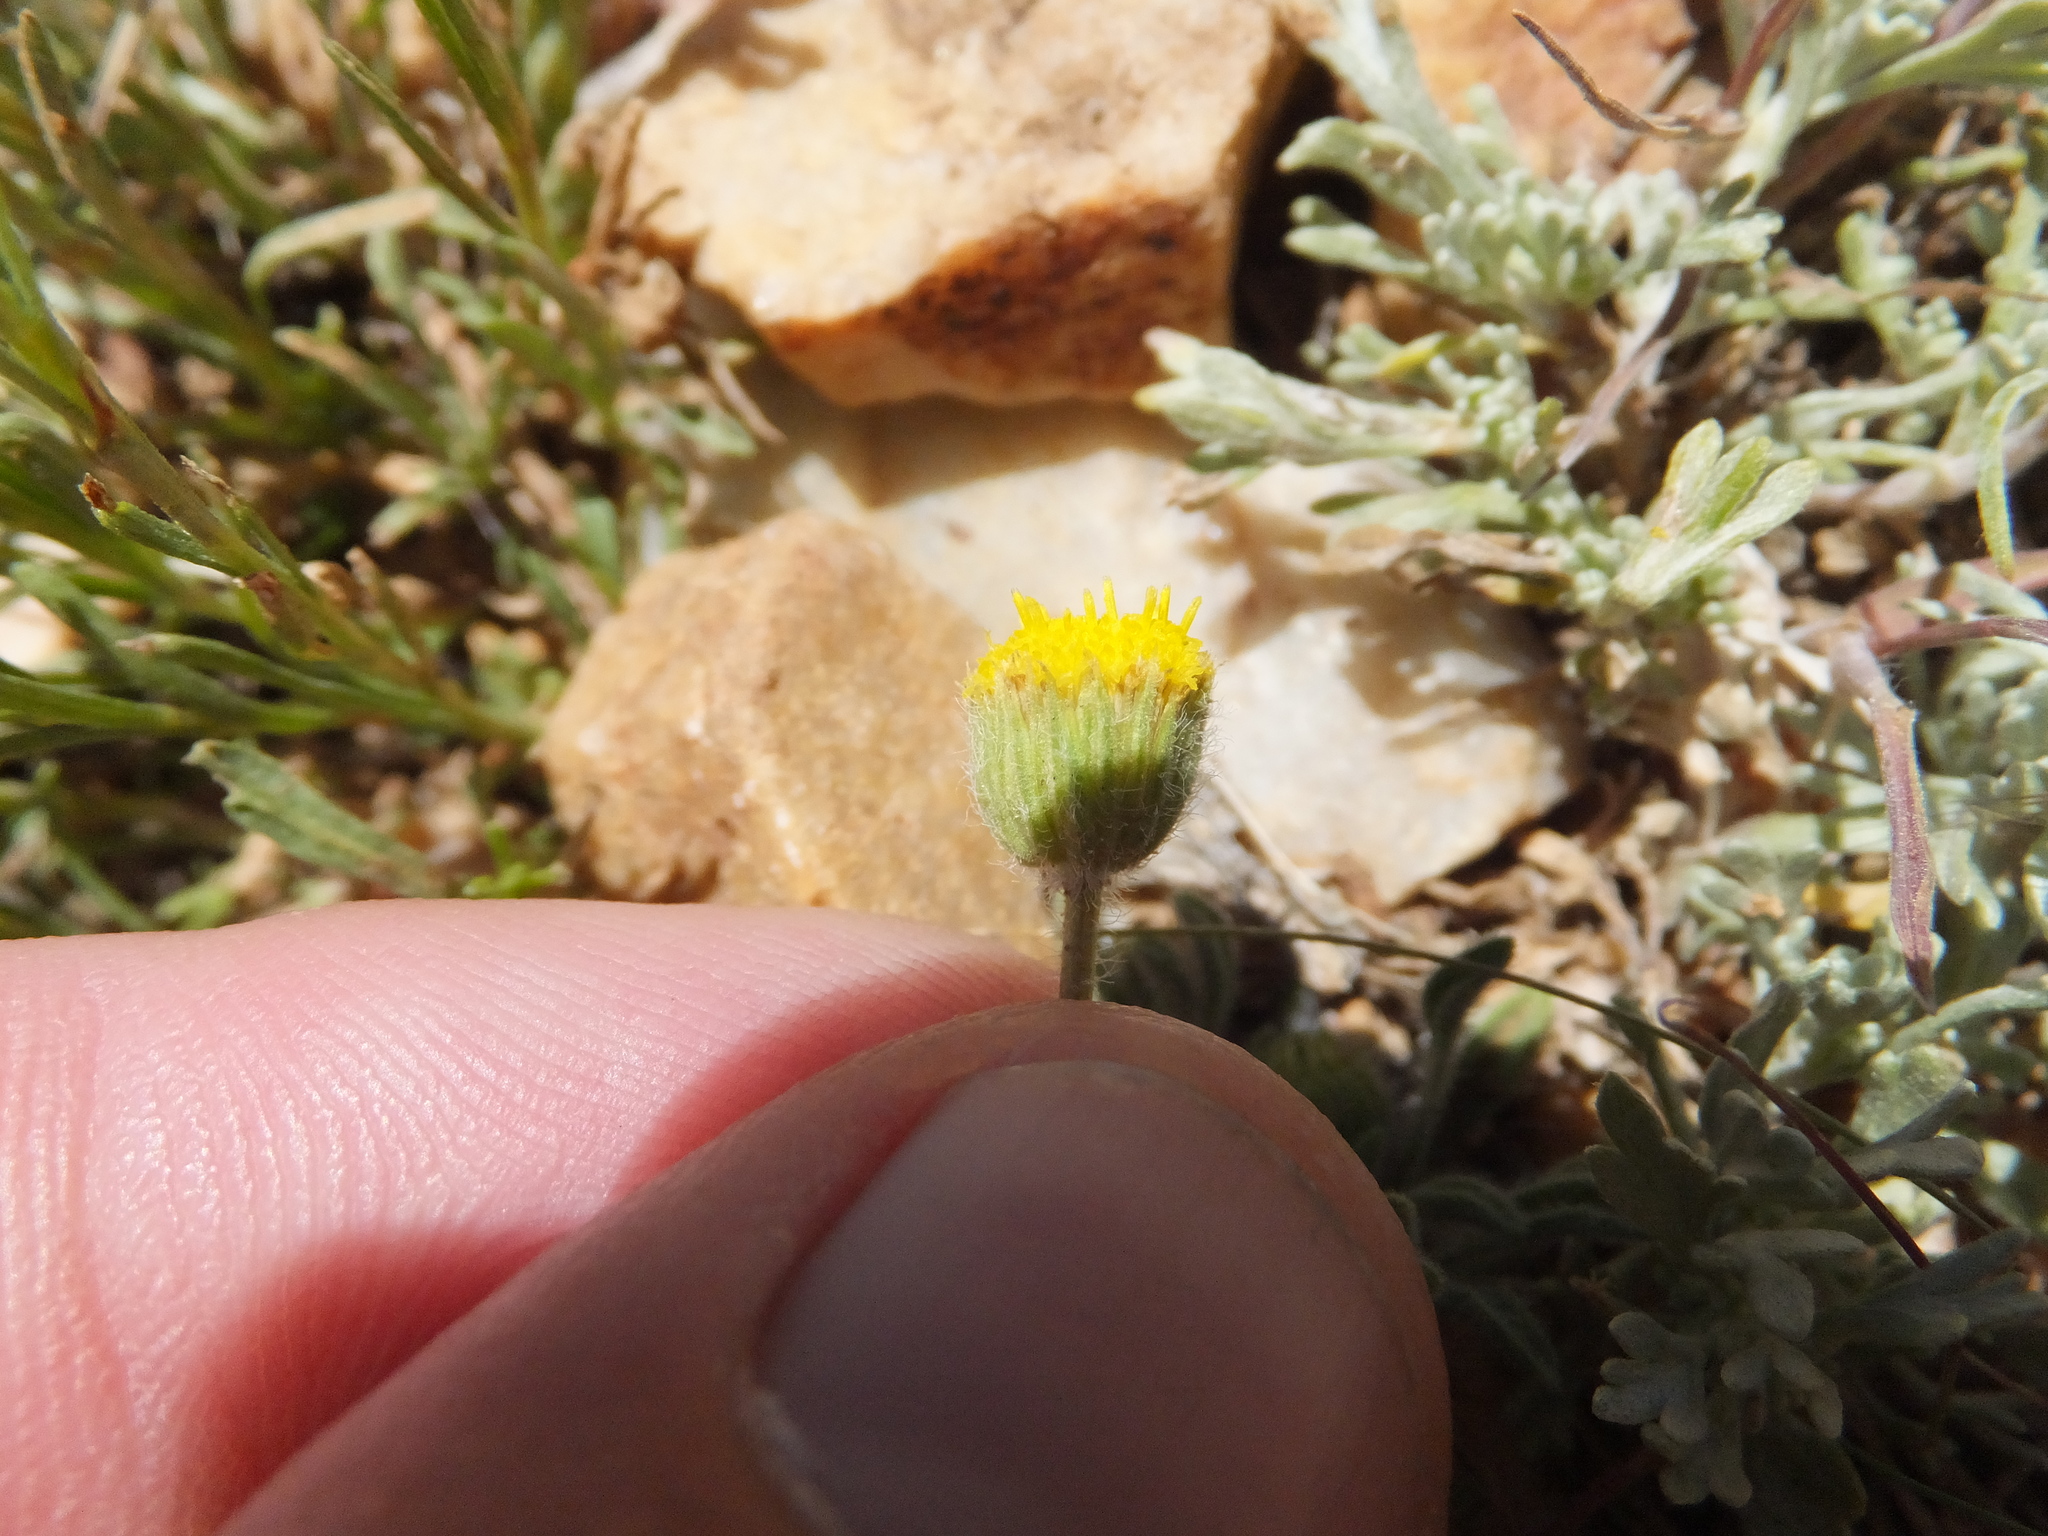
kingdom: Plantae
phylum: Tracheophyta
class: Magnoliopsida
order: Asterales
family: Asteraceae
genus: Erigeron
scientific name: Erigeron aphanactis
